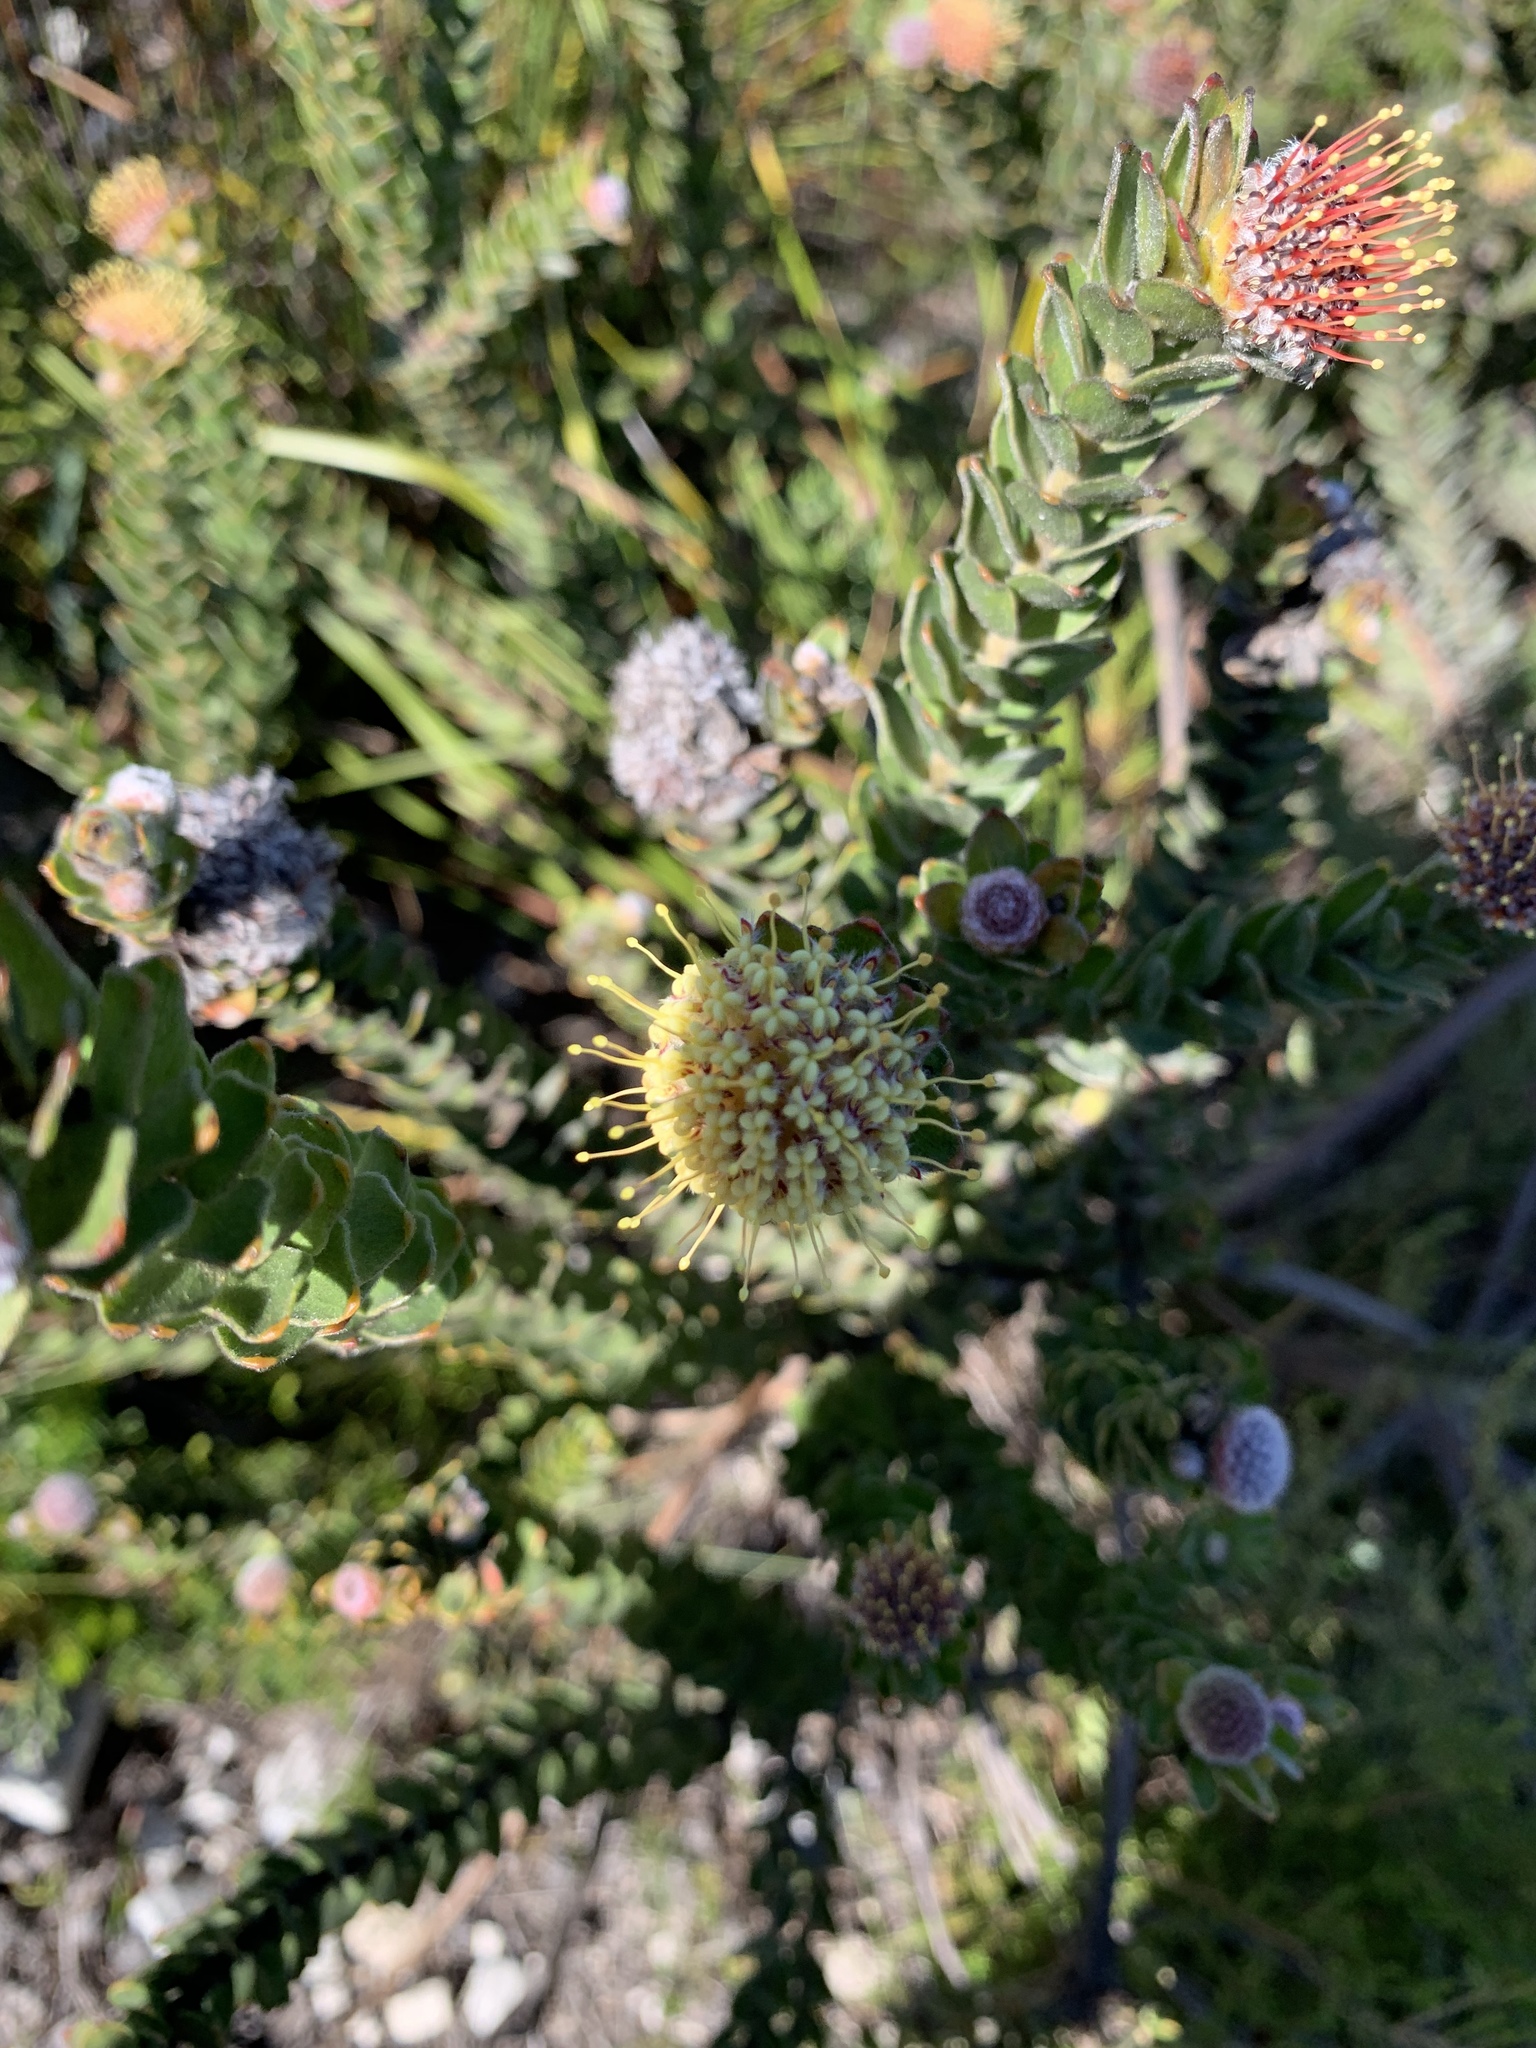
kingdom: Plantae
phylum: Tracheophyta
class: Magnoliopsida
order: Proteales
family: Proteaceae
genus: Leucospermum
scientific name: Leucospermum truncatulum
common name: Oval-leaf pincushion
